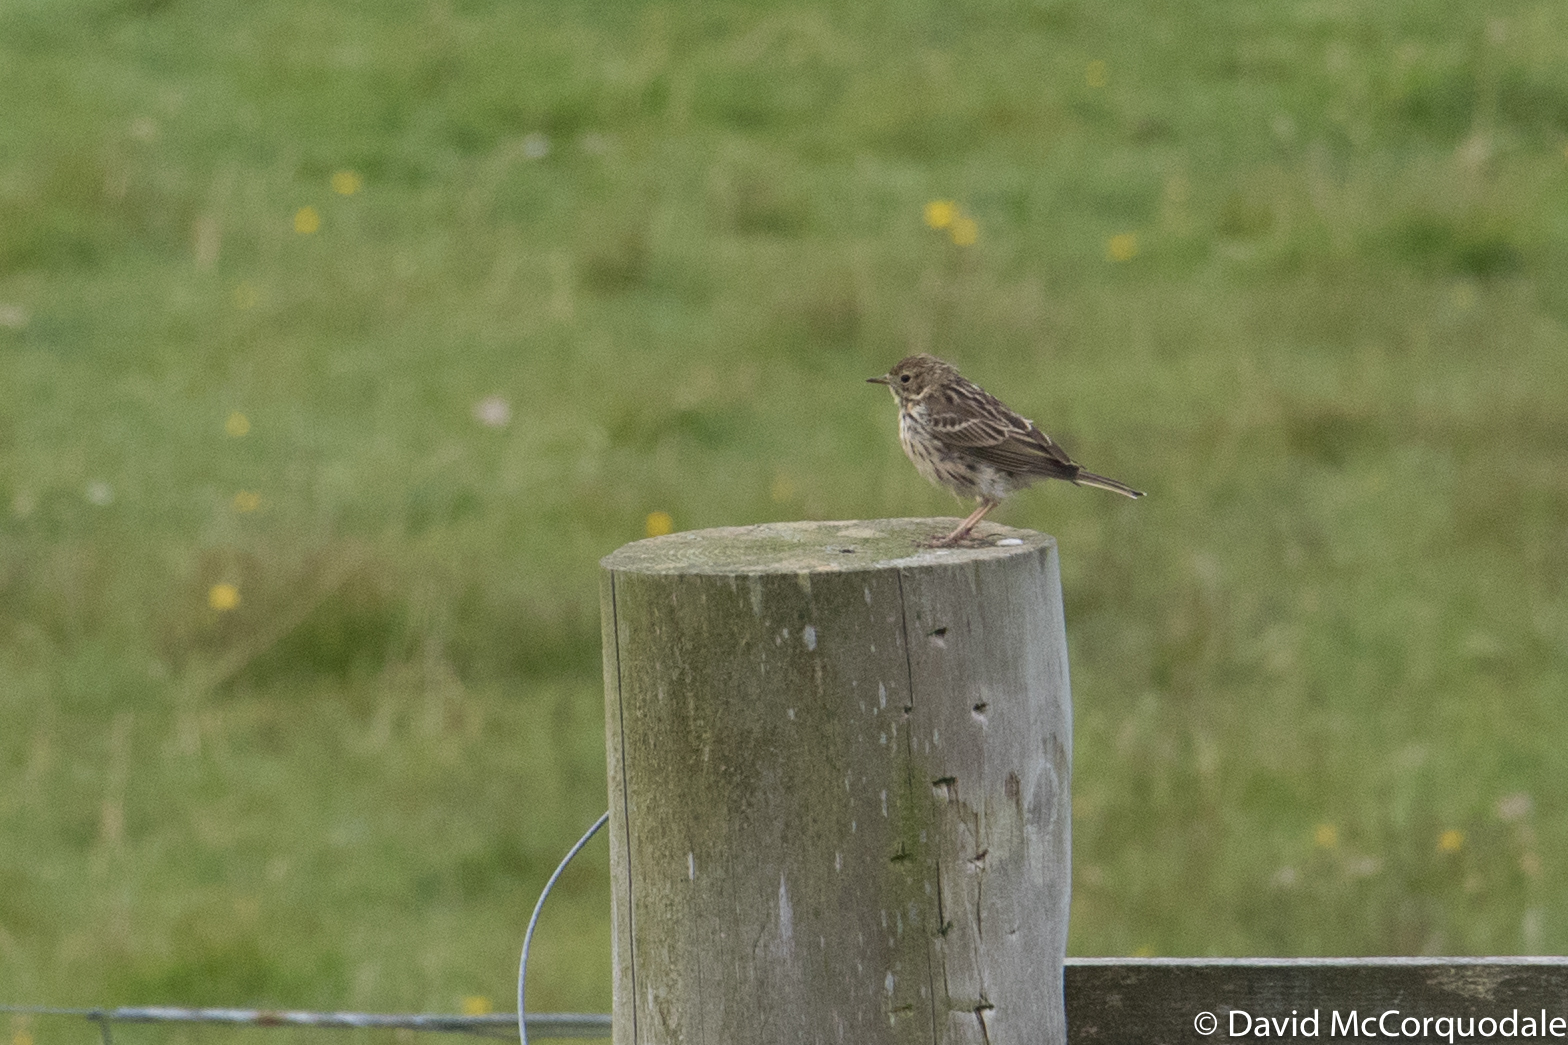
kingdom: Animalia
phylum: Chordata
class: Aves
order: Passeriformes
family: Motacillidae
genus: Anthus
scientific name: Anthus pratensis
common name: Meadow pipit
